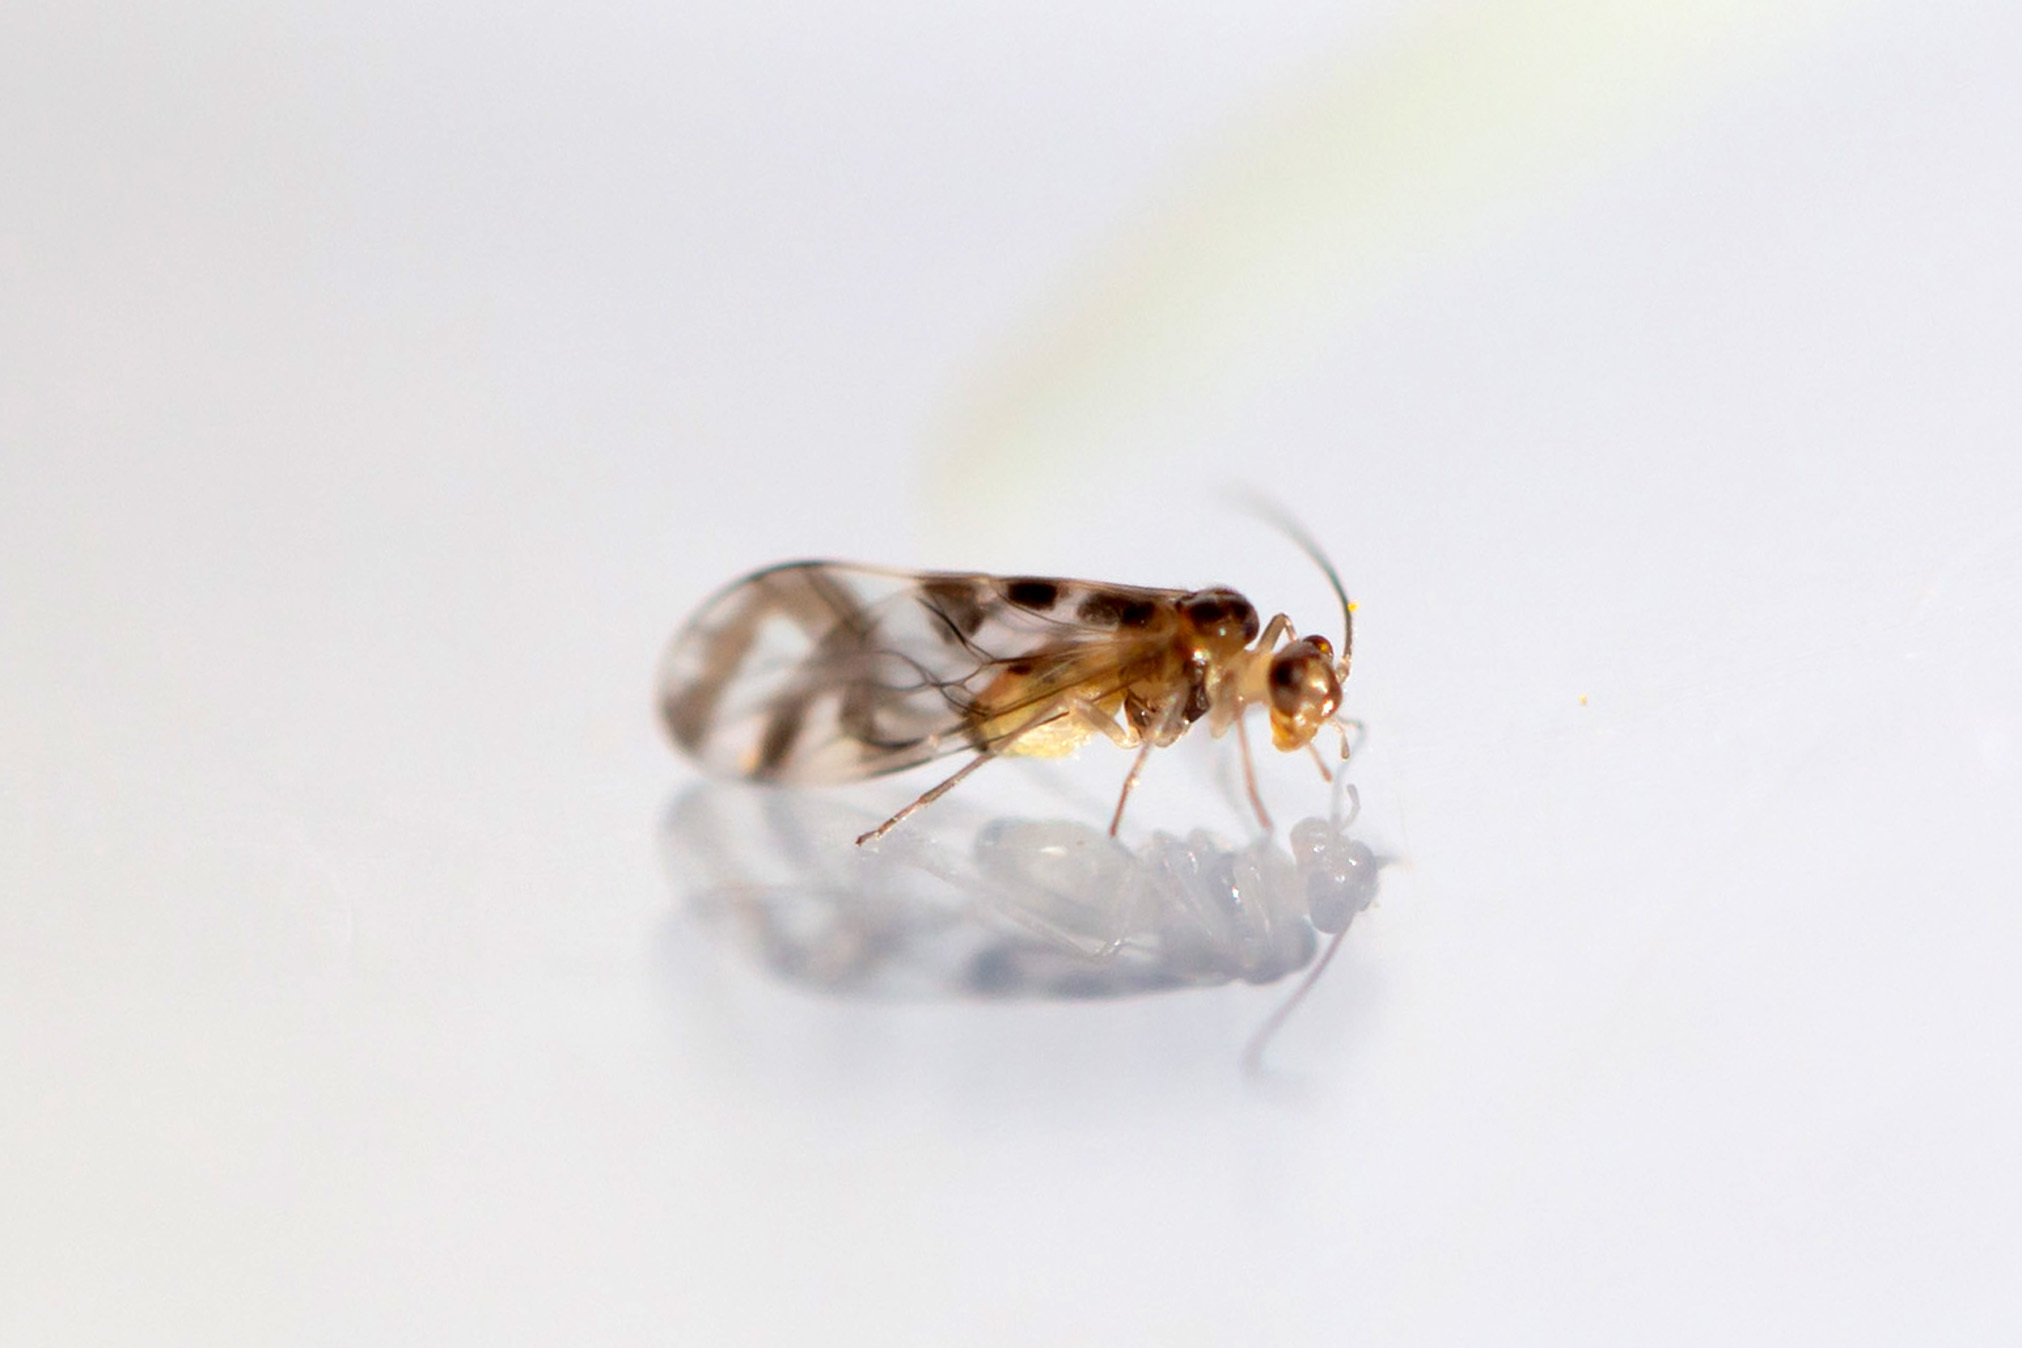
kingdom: Animalia
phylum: Arthropoda
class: Insecta
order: Psocodea
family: Stenopsocidae
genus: Graphopsocus
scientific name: Graphopsocus cruciatus
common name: Lizard bark louse
